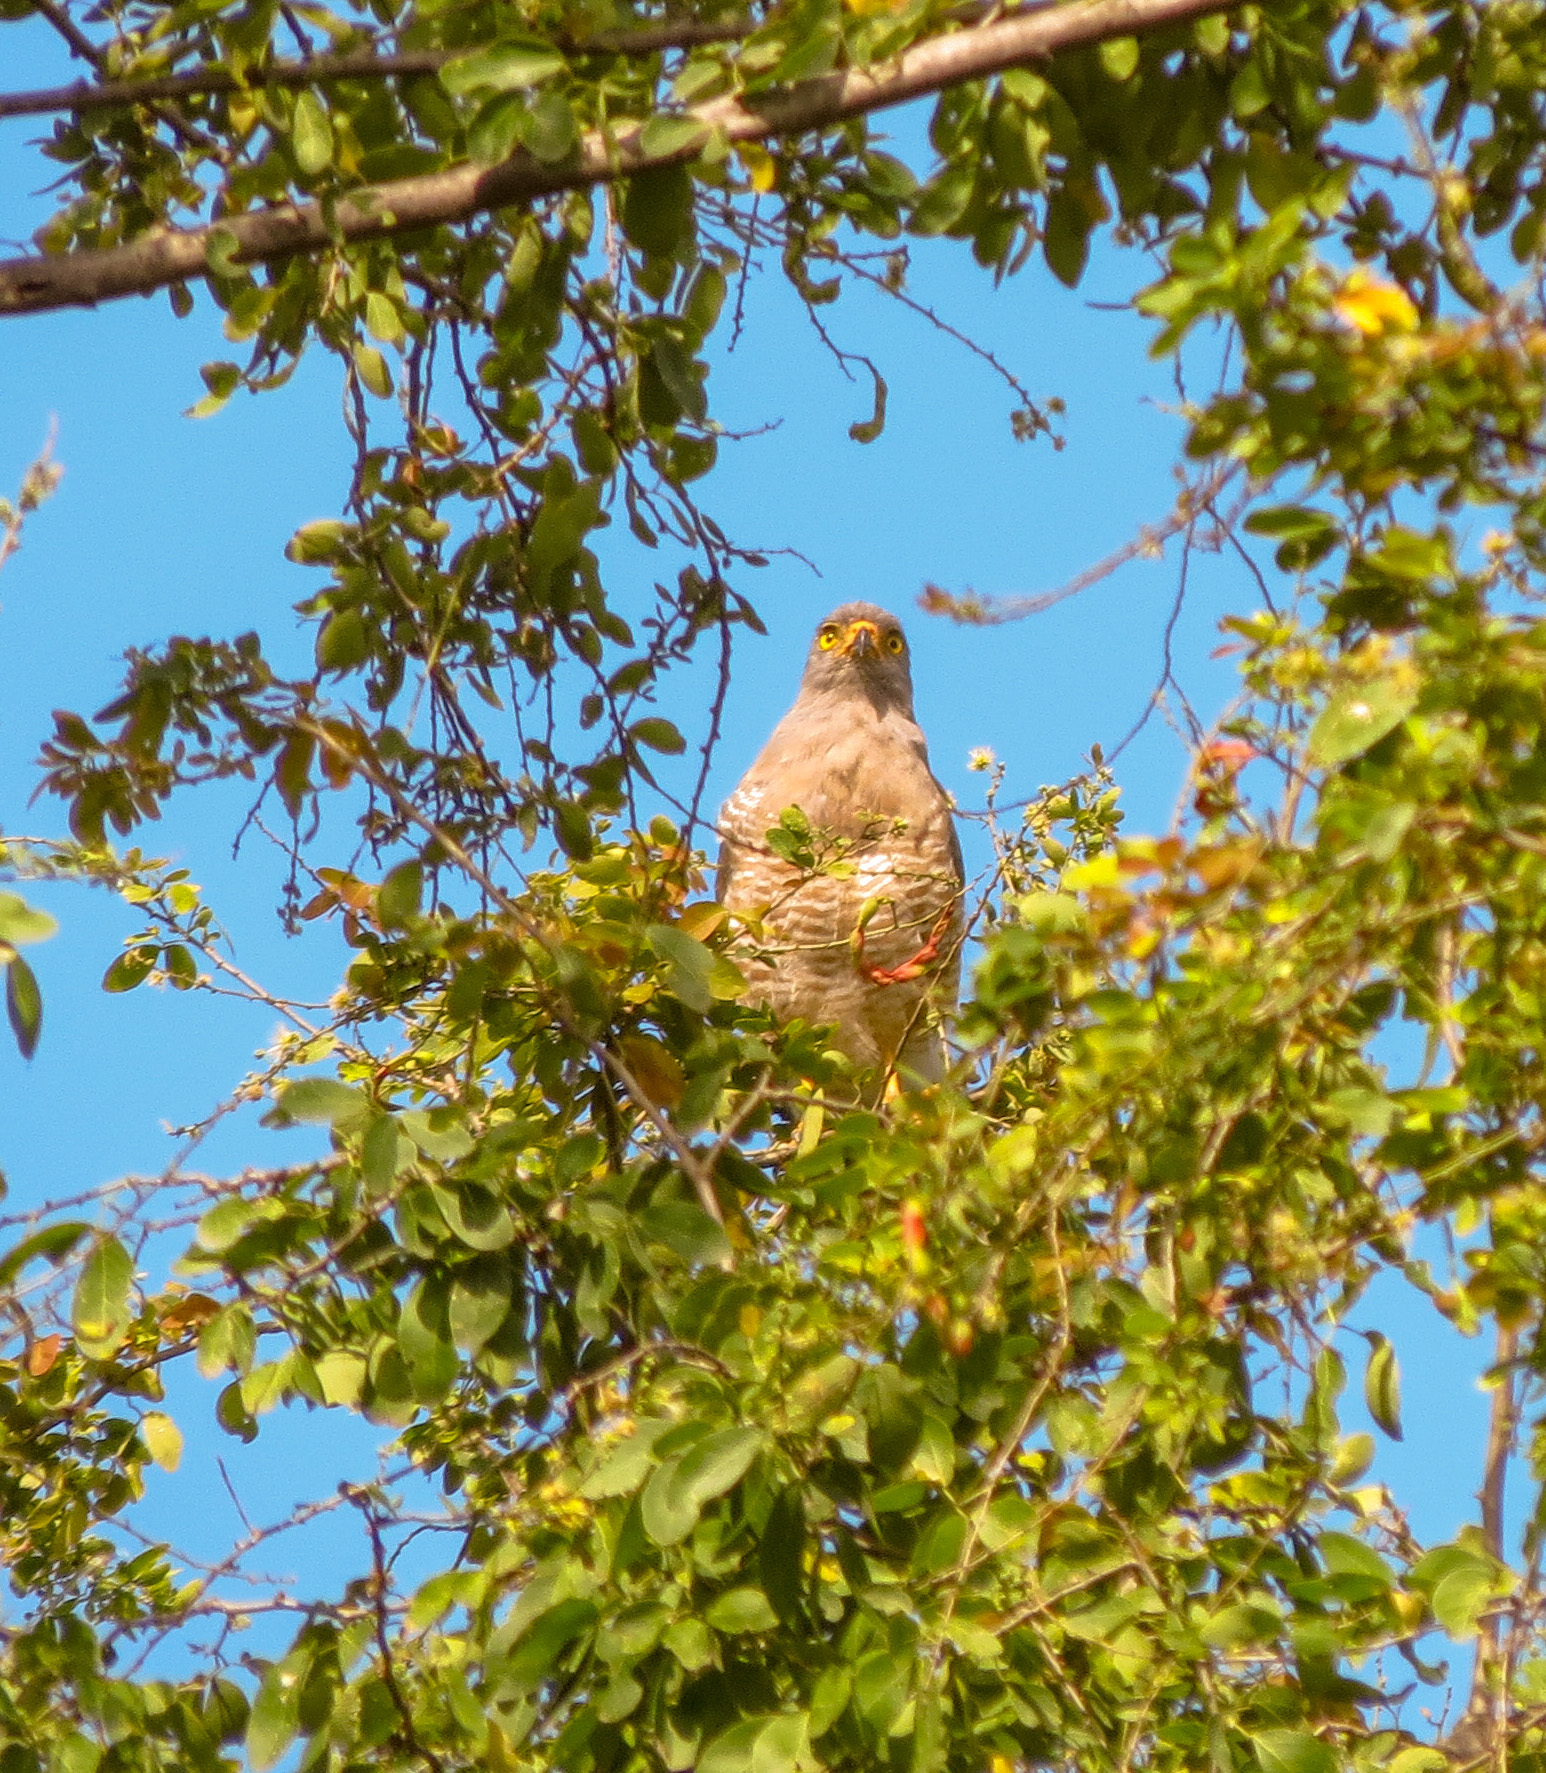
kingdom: Animalia
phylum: Chordata
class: Aves
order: Accipitriformes
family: Accipitridae
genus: Rupornis
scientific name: Rupornis magnirostris
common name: Roadside hawk
